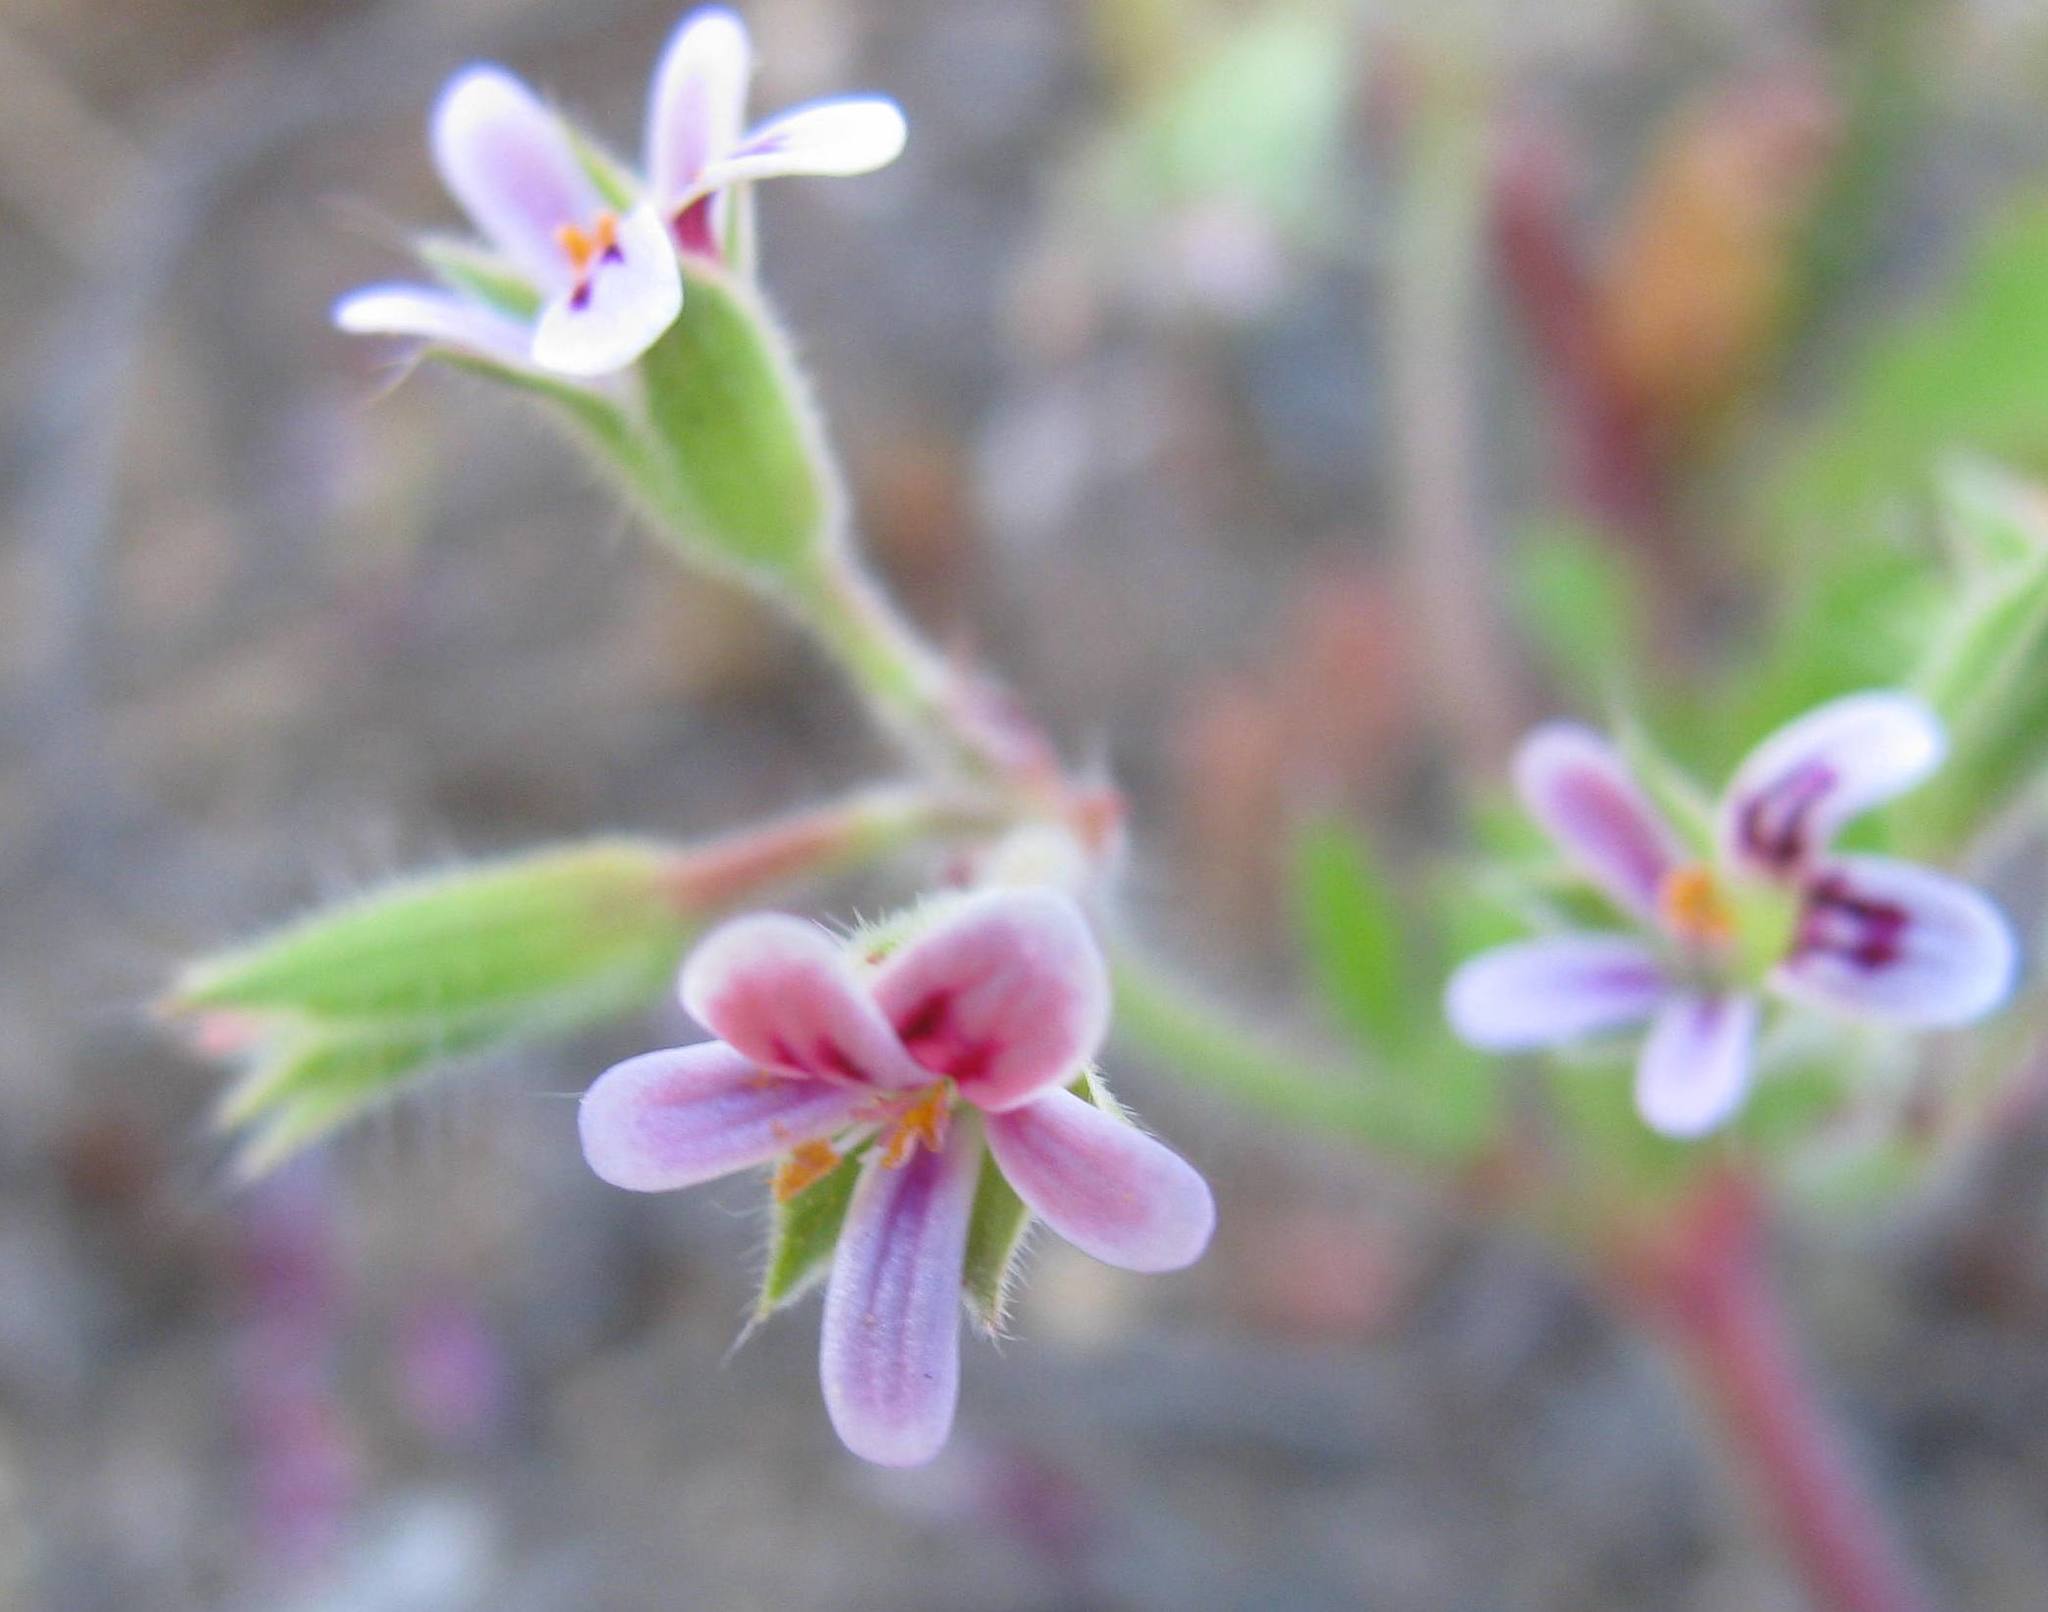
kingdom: Plantae
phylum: Tracheophyta
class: Magnoliopsida
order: Geraniales
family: Geraniaceae
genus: Pelargonium
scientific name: Pelargonium althaeoides
